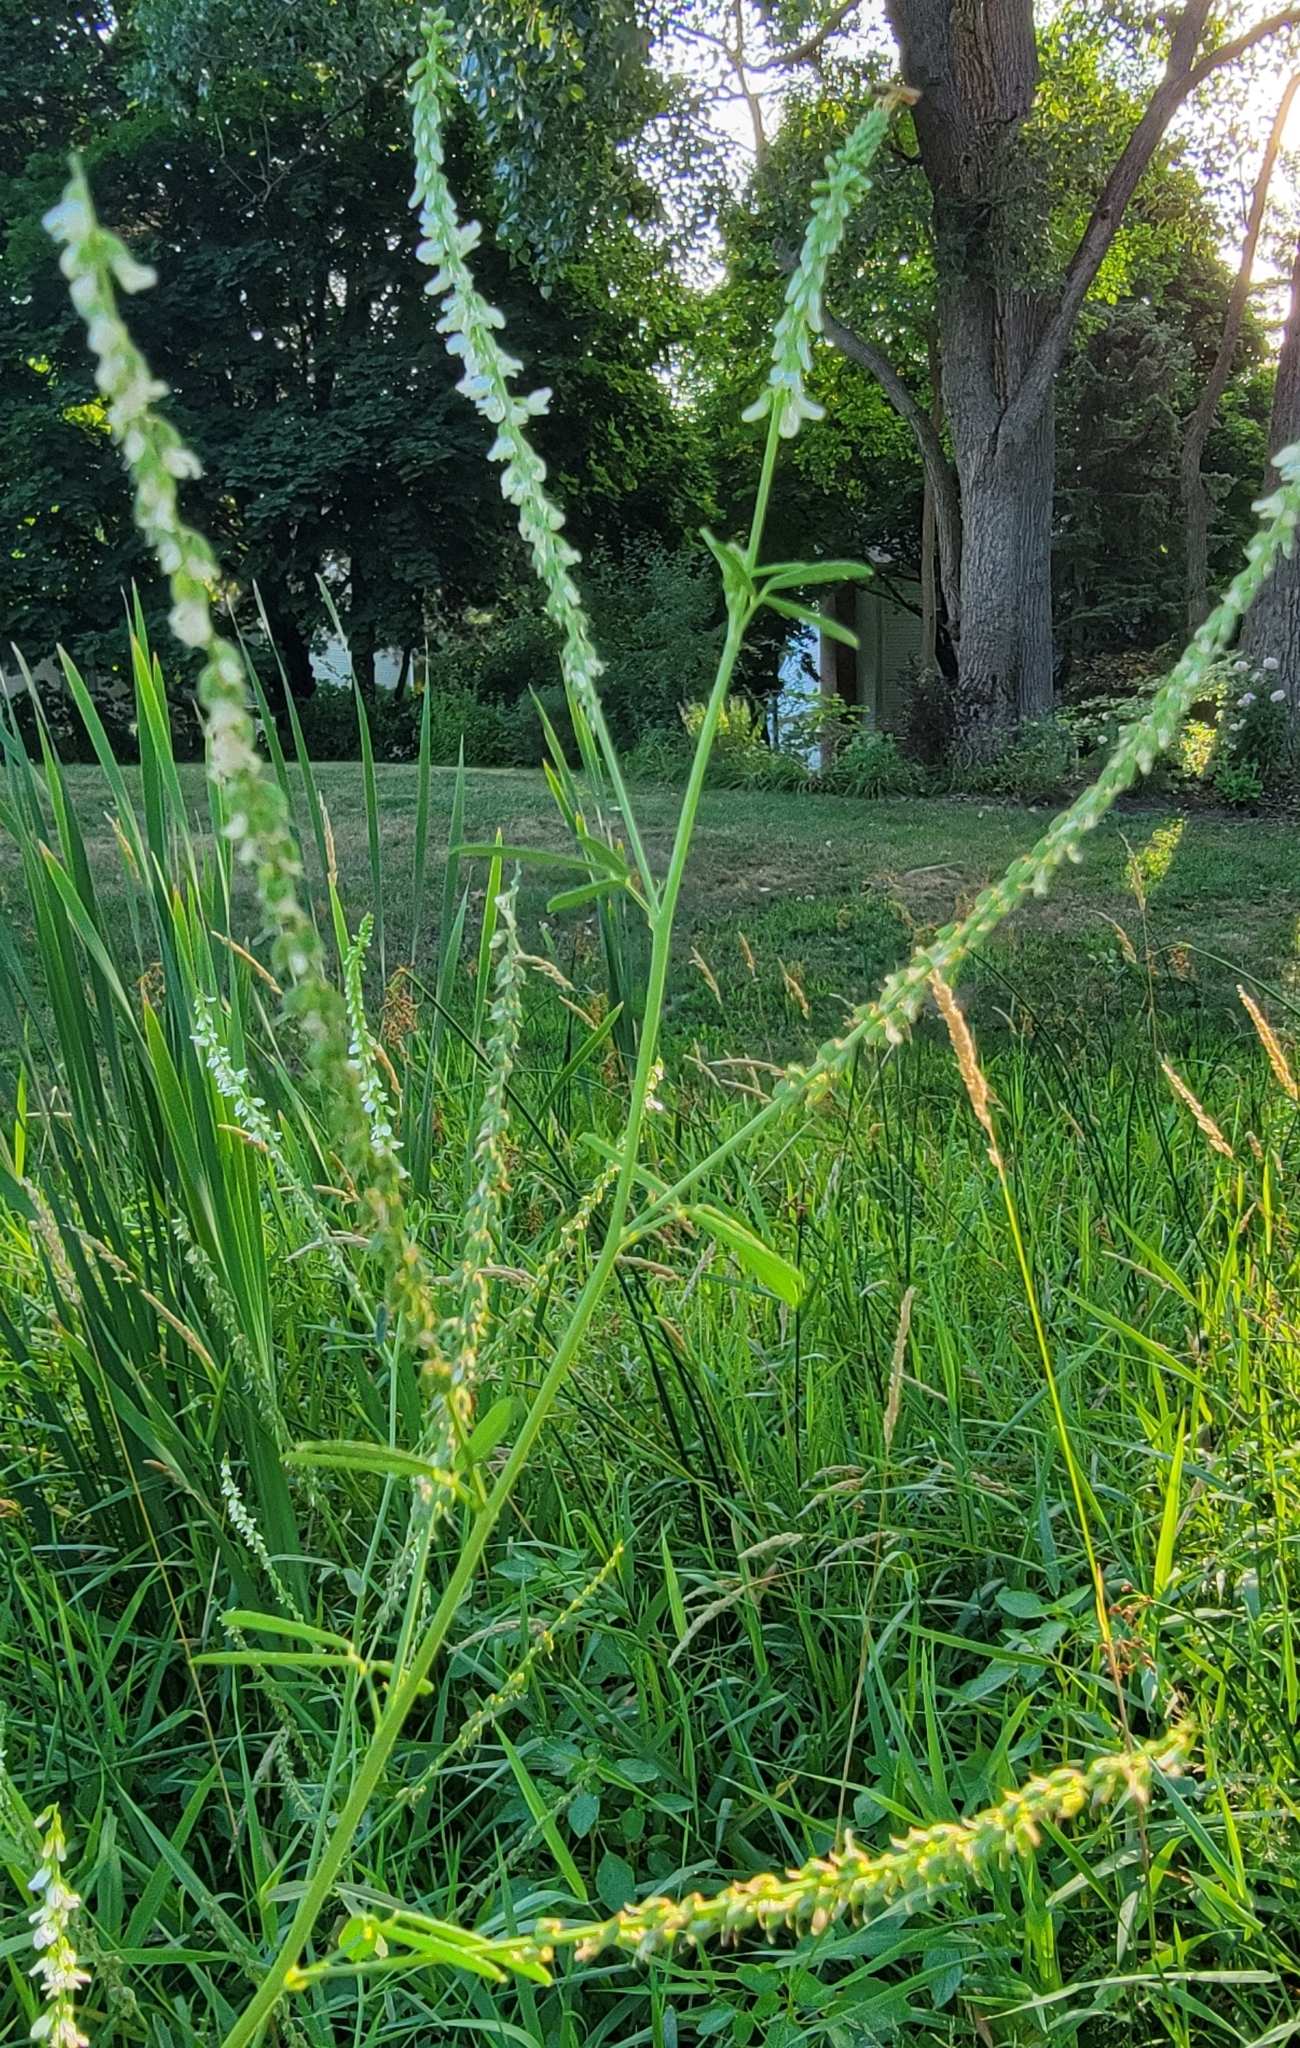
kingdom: Plantae
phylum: Tracheophyta
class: Magnoliopsida
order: Fabales
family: Fabaceae
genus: Melilotus
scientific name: Melilotus albus
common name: White melilot
